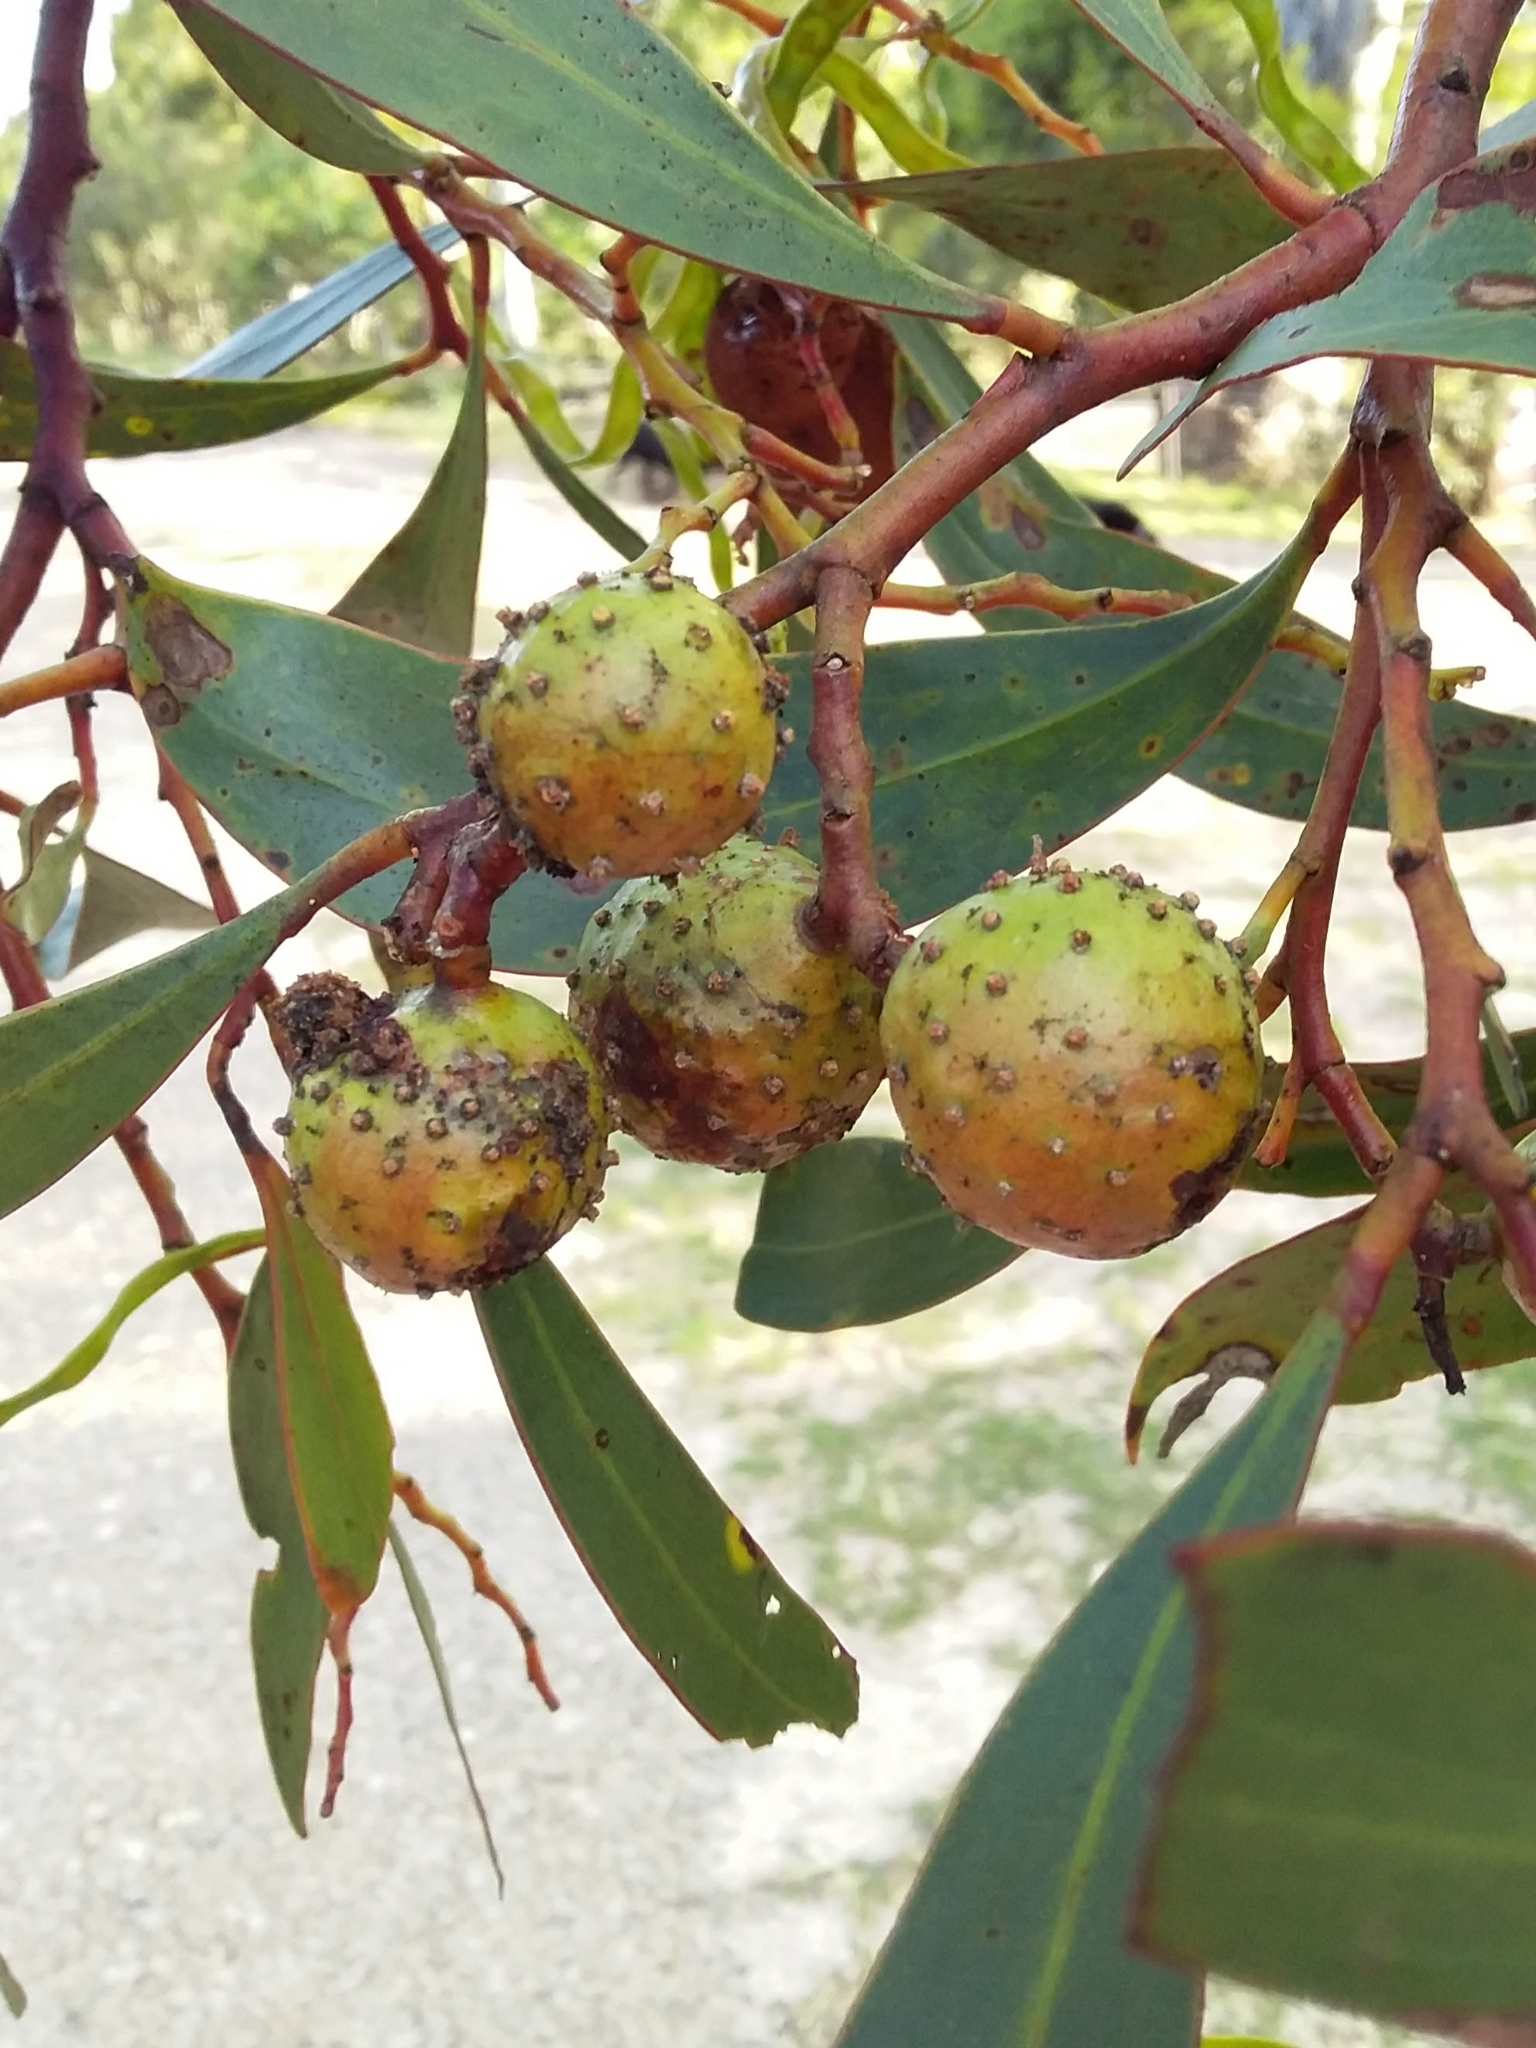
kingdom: Animalia
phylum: Arthropoda
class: Insecta
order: Hymenoptera
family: Pteromalidae
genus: Trichilogaster
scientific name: Trichilogaster signiventris
